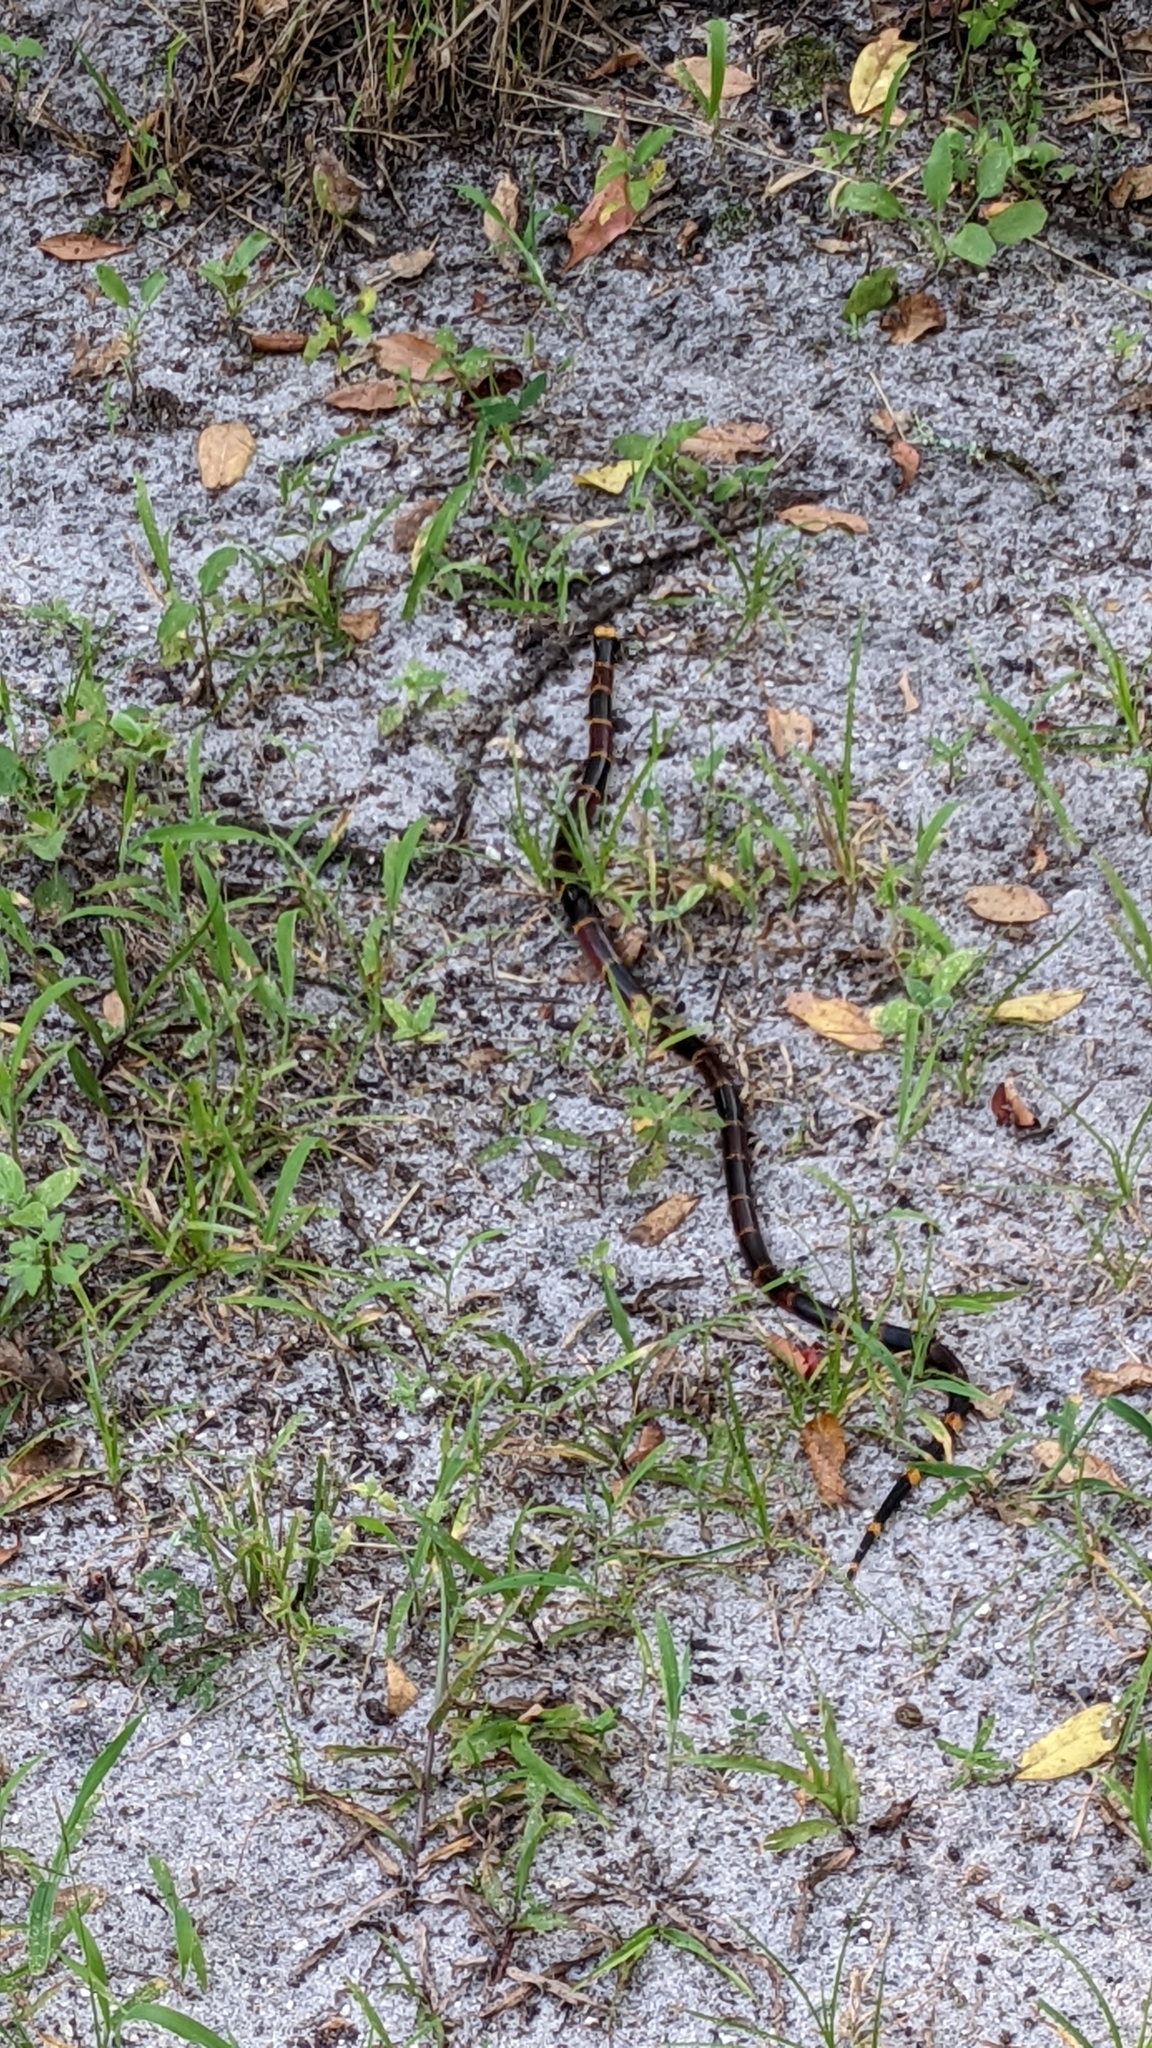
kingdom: Animalia
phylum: Chordata
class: Squamata
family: Elapidae
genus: Micrurus
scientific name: Micrurus fulvius
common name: Eastern coral snake
